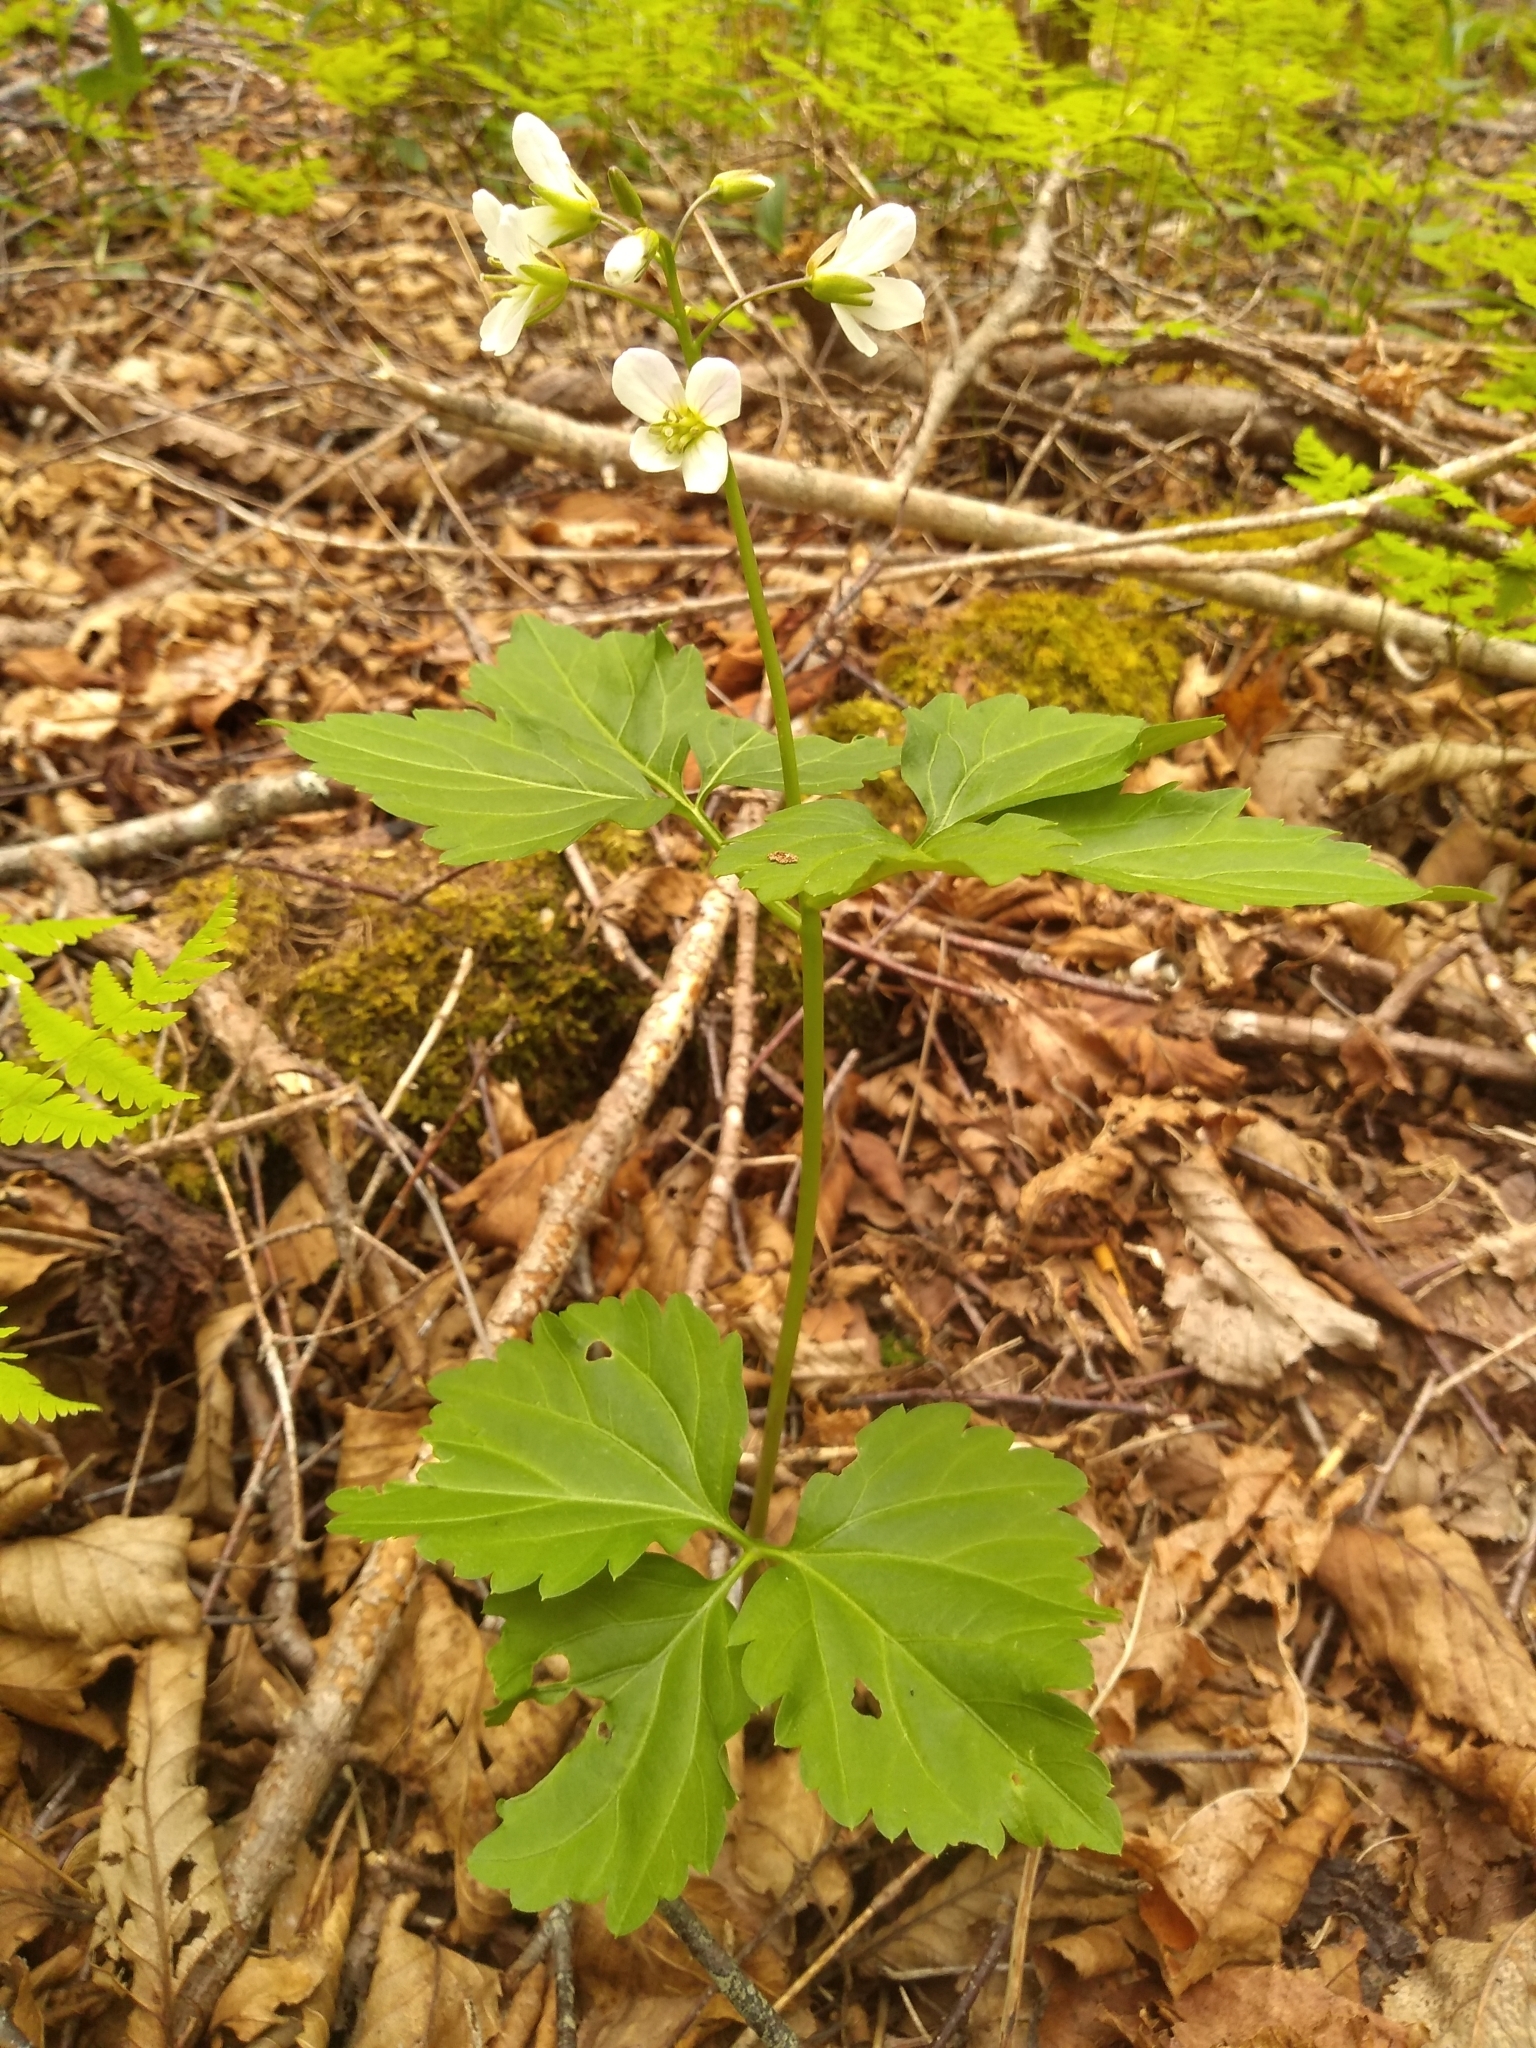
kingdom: Plantae
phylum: Tracheophyta
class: Magnoliopsida
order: Brassicales
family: Brassicaceae
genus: Cardamine
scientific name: Cardamine diphylla
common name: Broad-leaved toothwort
